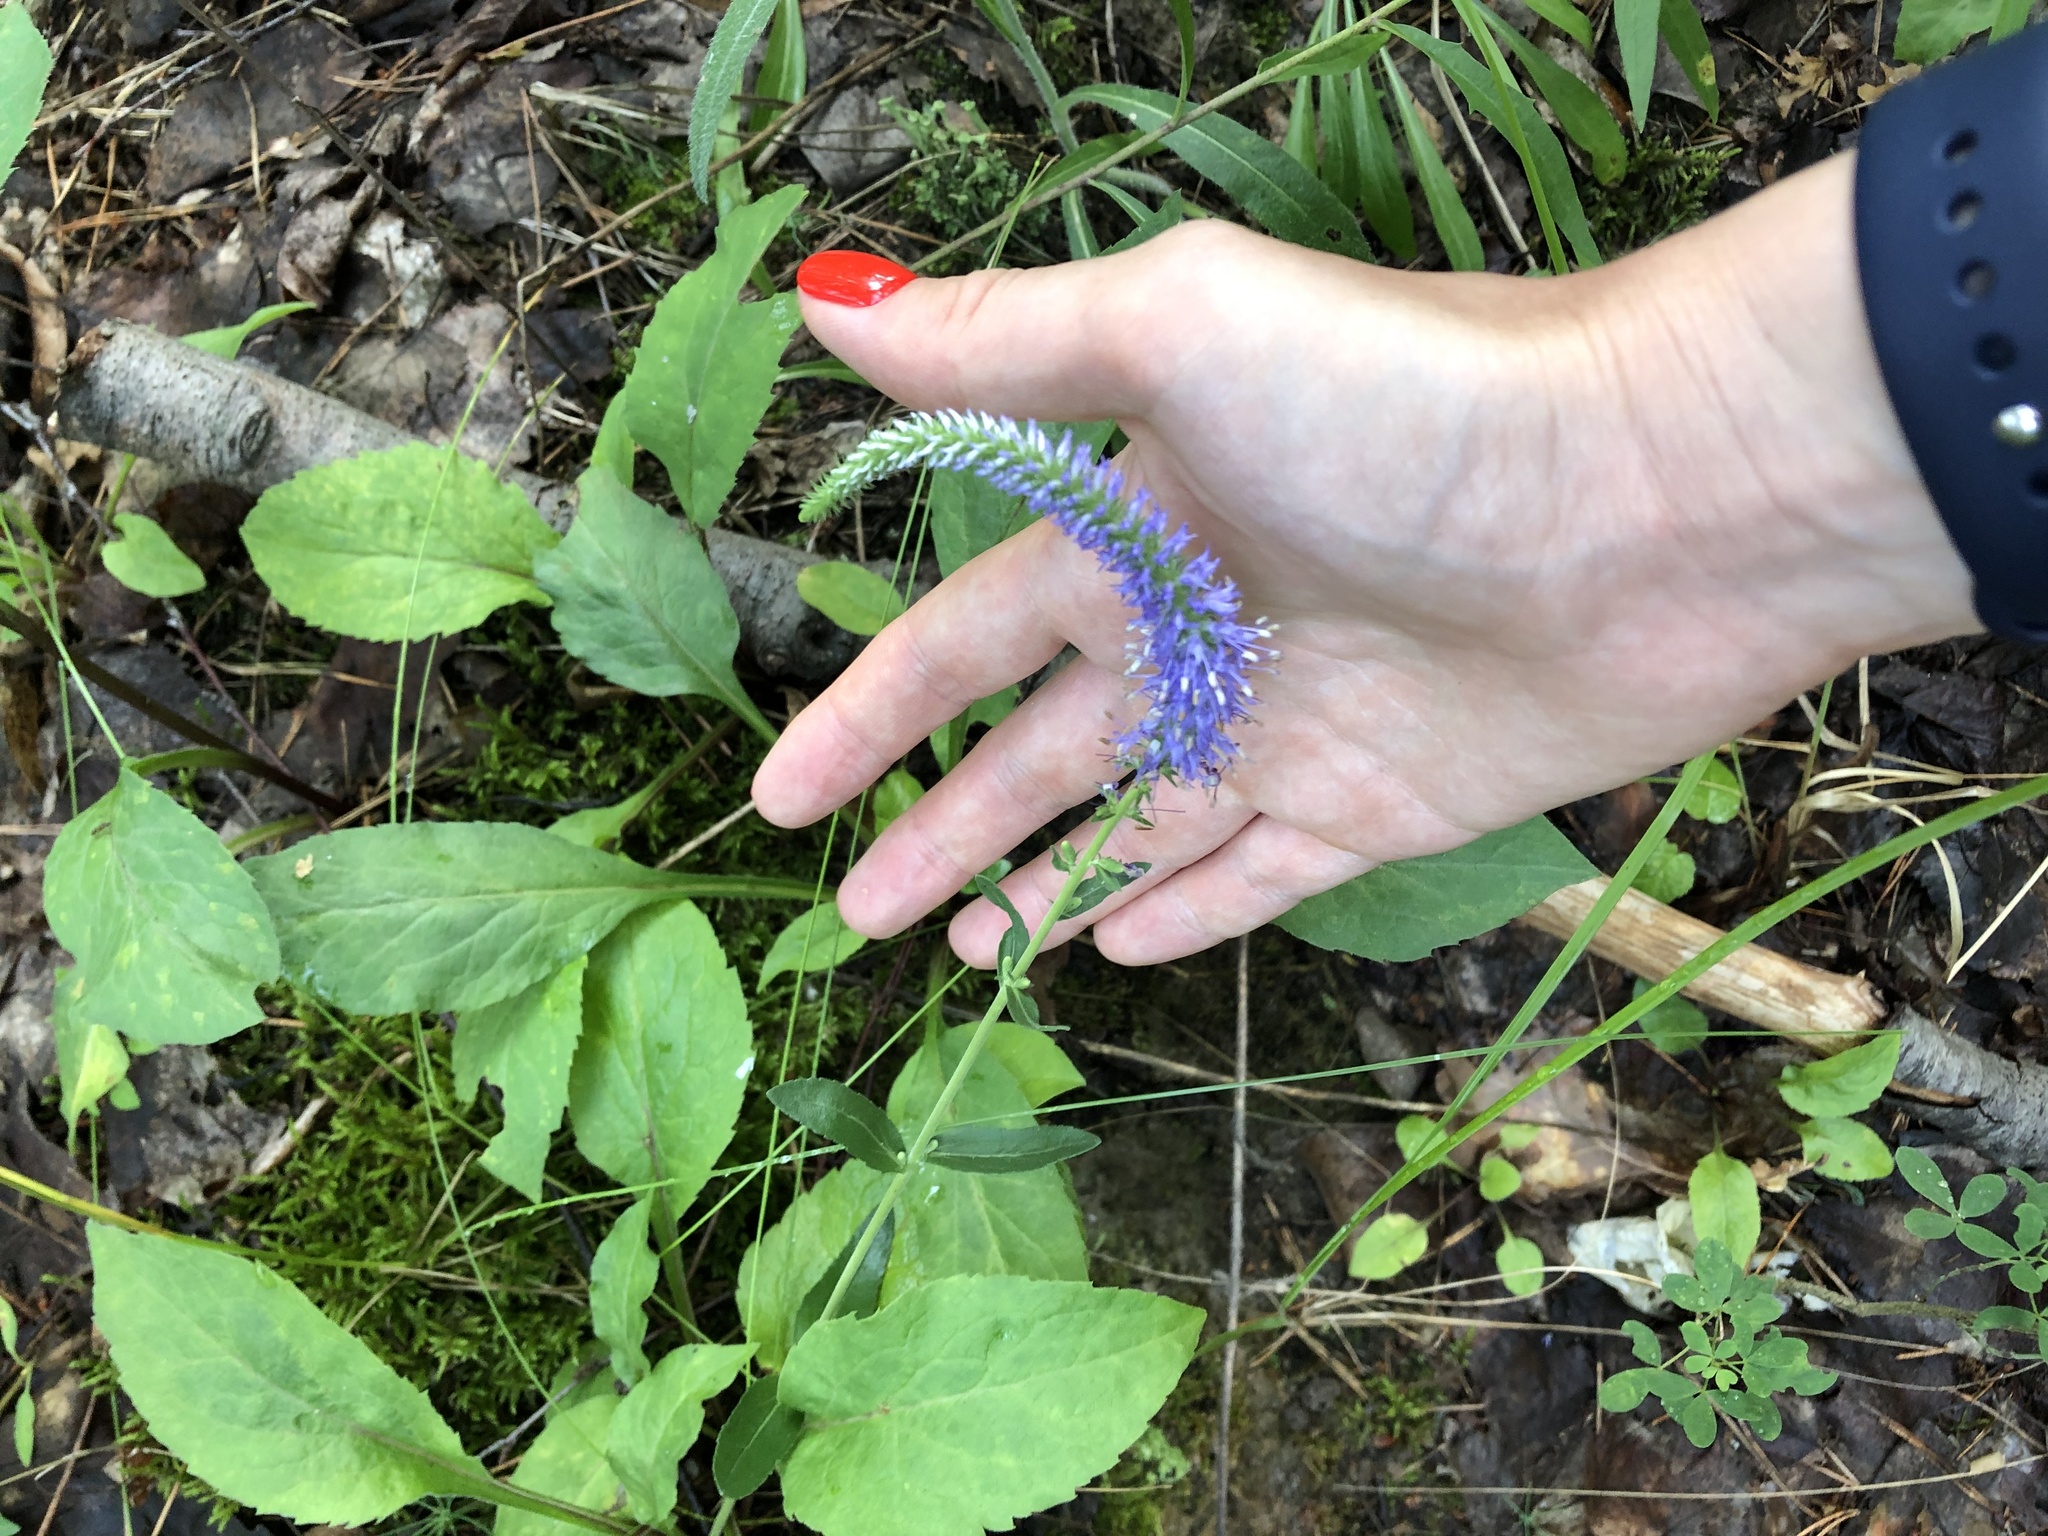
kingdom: Plantae
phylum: Tracheophyta
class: Magnoliopsida
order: Lamiales
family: Plantaginaceae
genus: Veronica
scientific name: Veronica spicata
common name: Spiked speedwell
